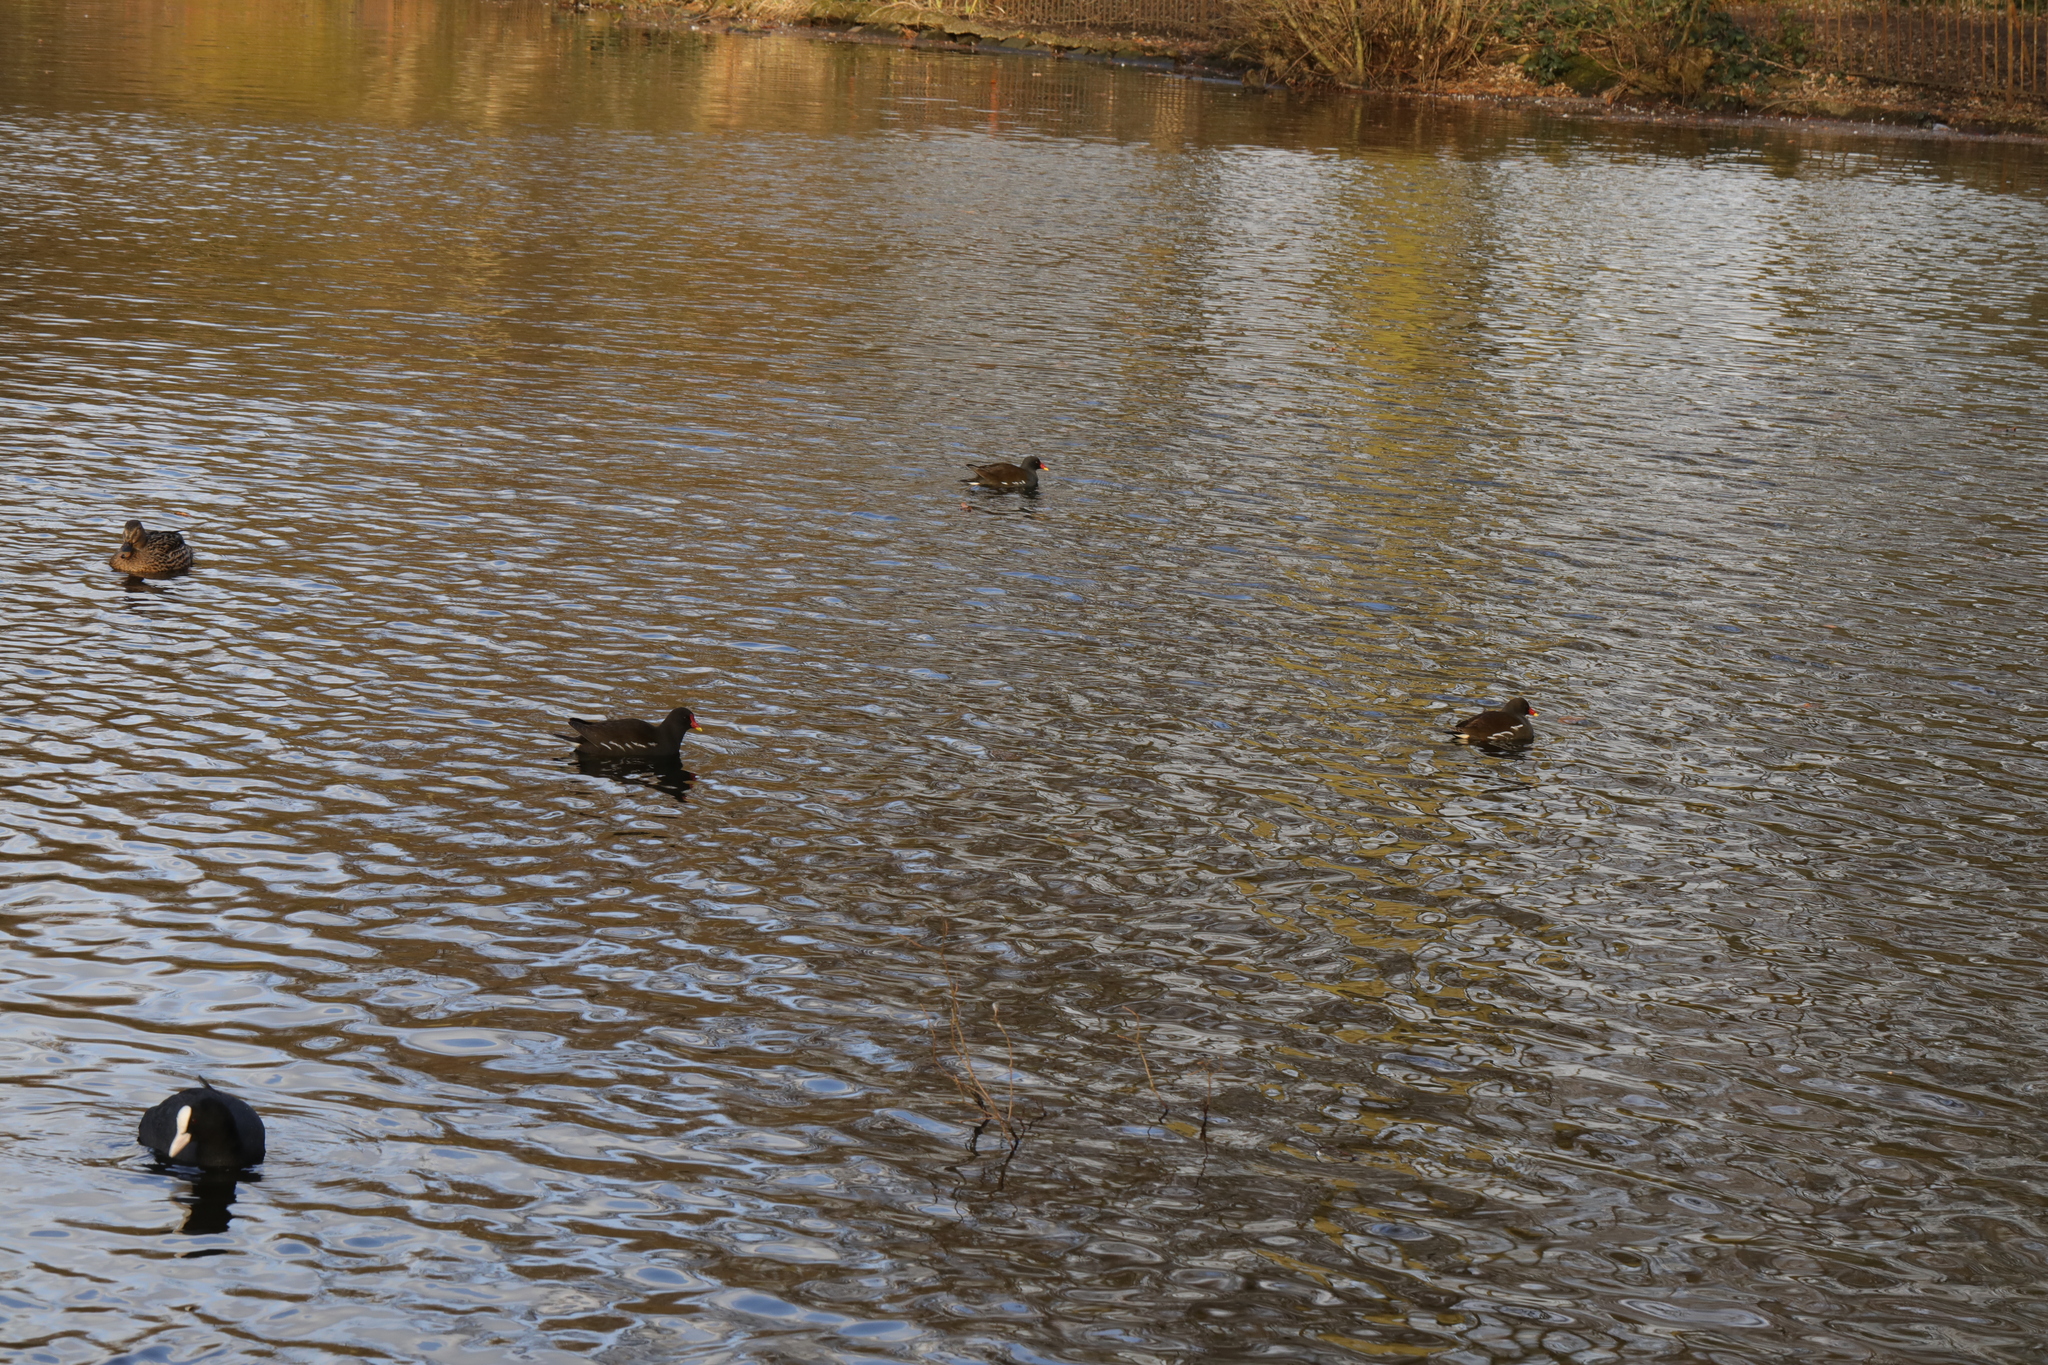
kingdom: Animalia
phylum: Chordata
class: Aves
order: Gruiformes
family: Rallidae
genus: Gallinula
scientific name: Gallinula chloropus
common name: Common moorhen
